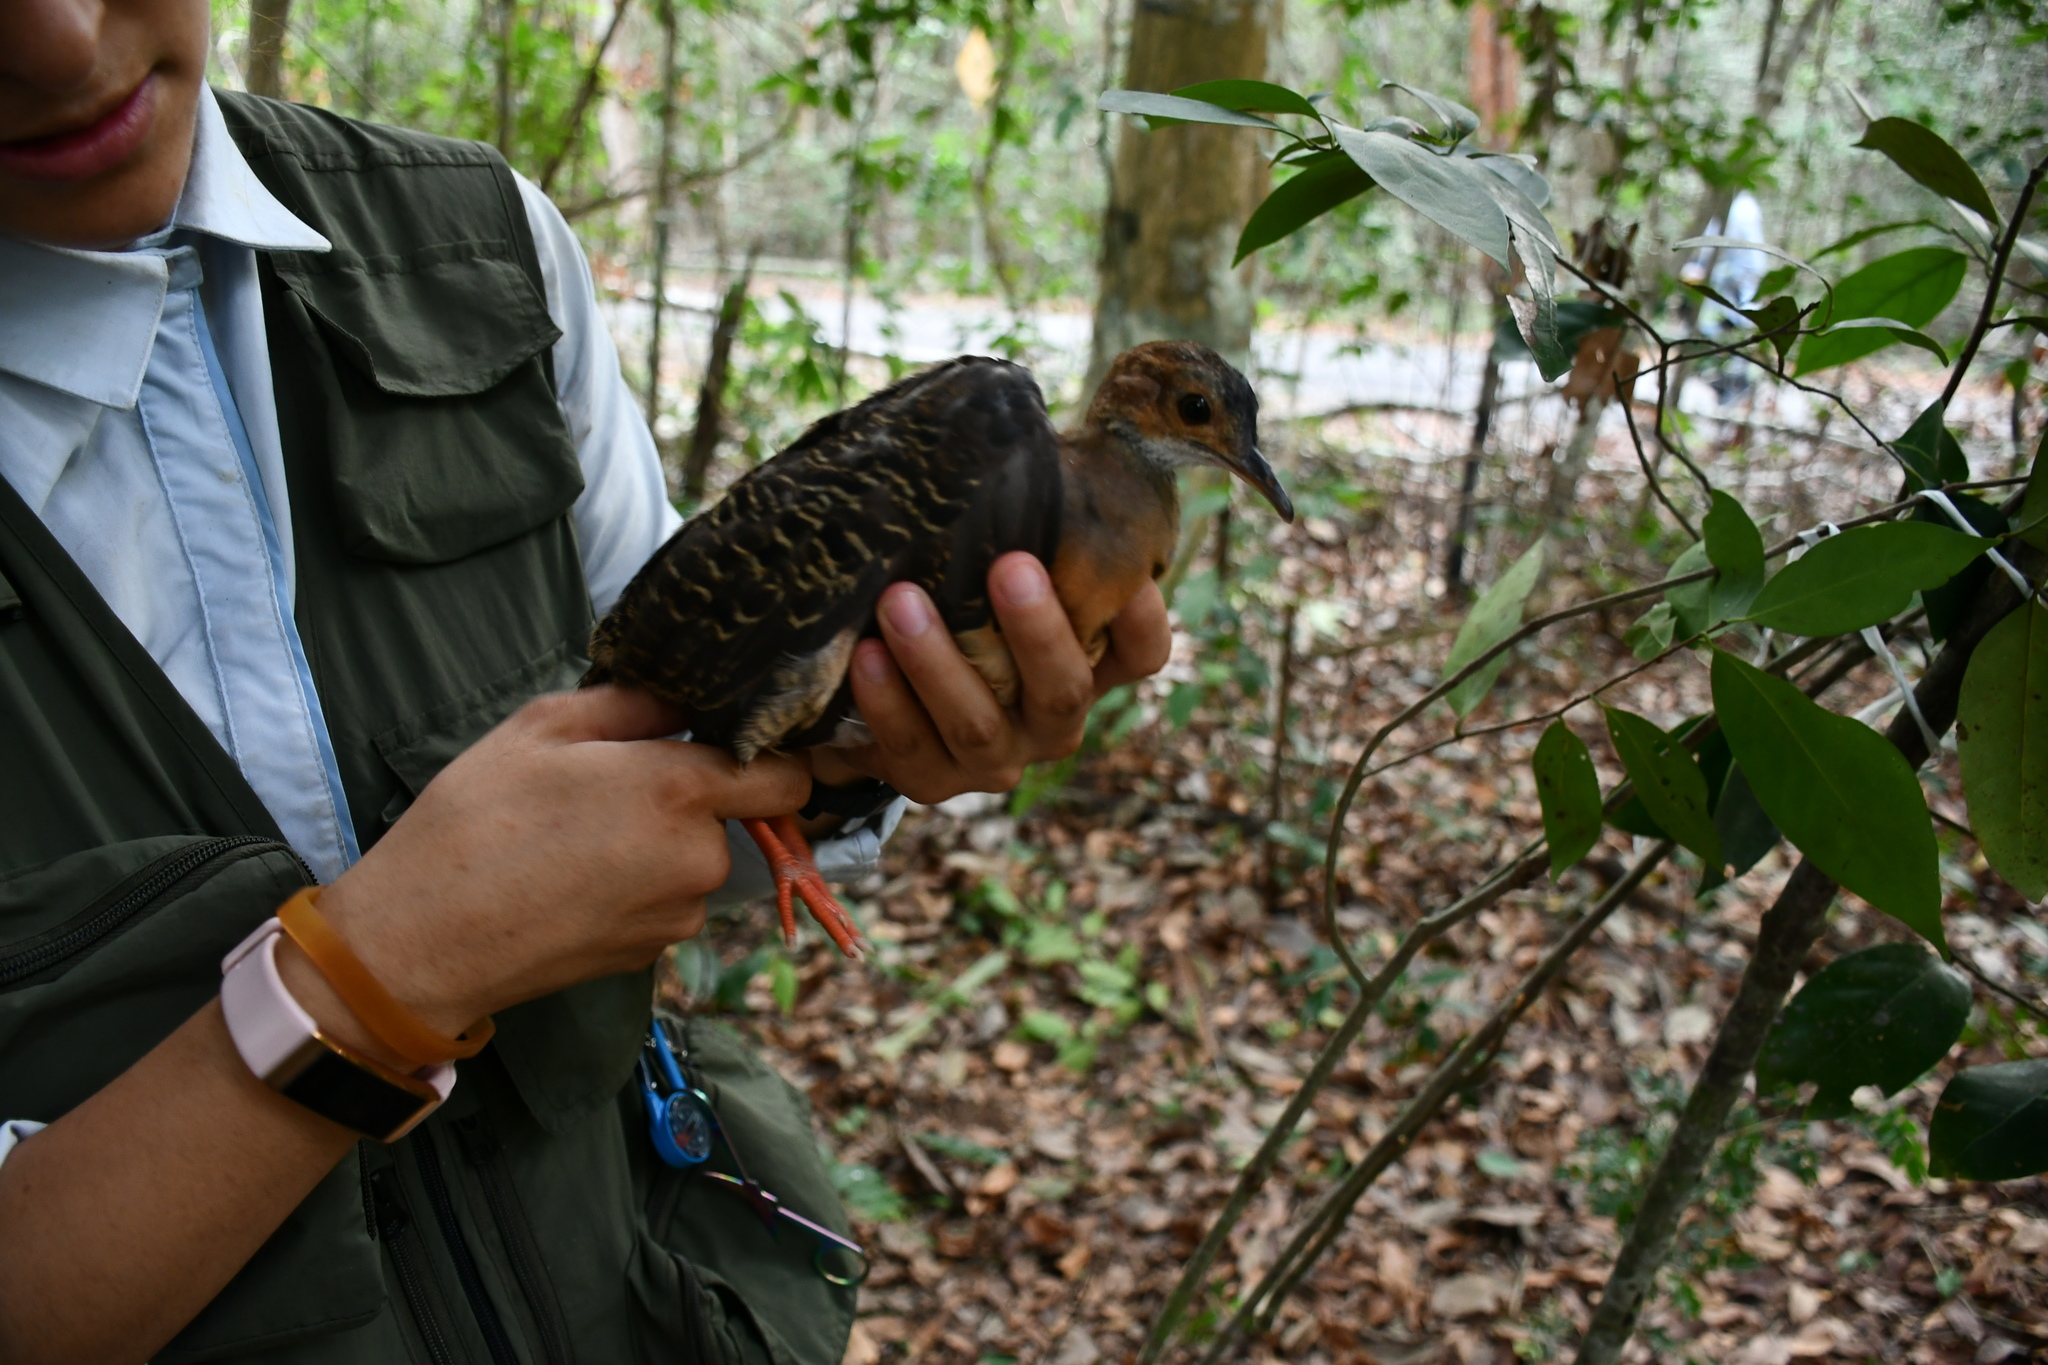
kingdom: Animalia
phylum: Chordata
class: Aves
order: Tinamiformes
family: Tinamidae
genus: Crypturellus
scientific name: Crypturellus cinnamomeus
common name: Thicket tinamou
